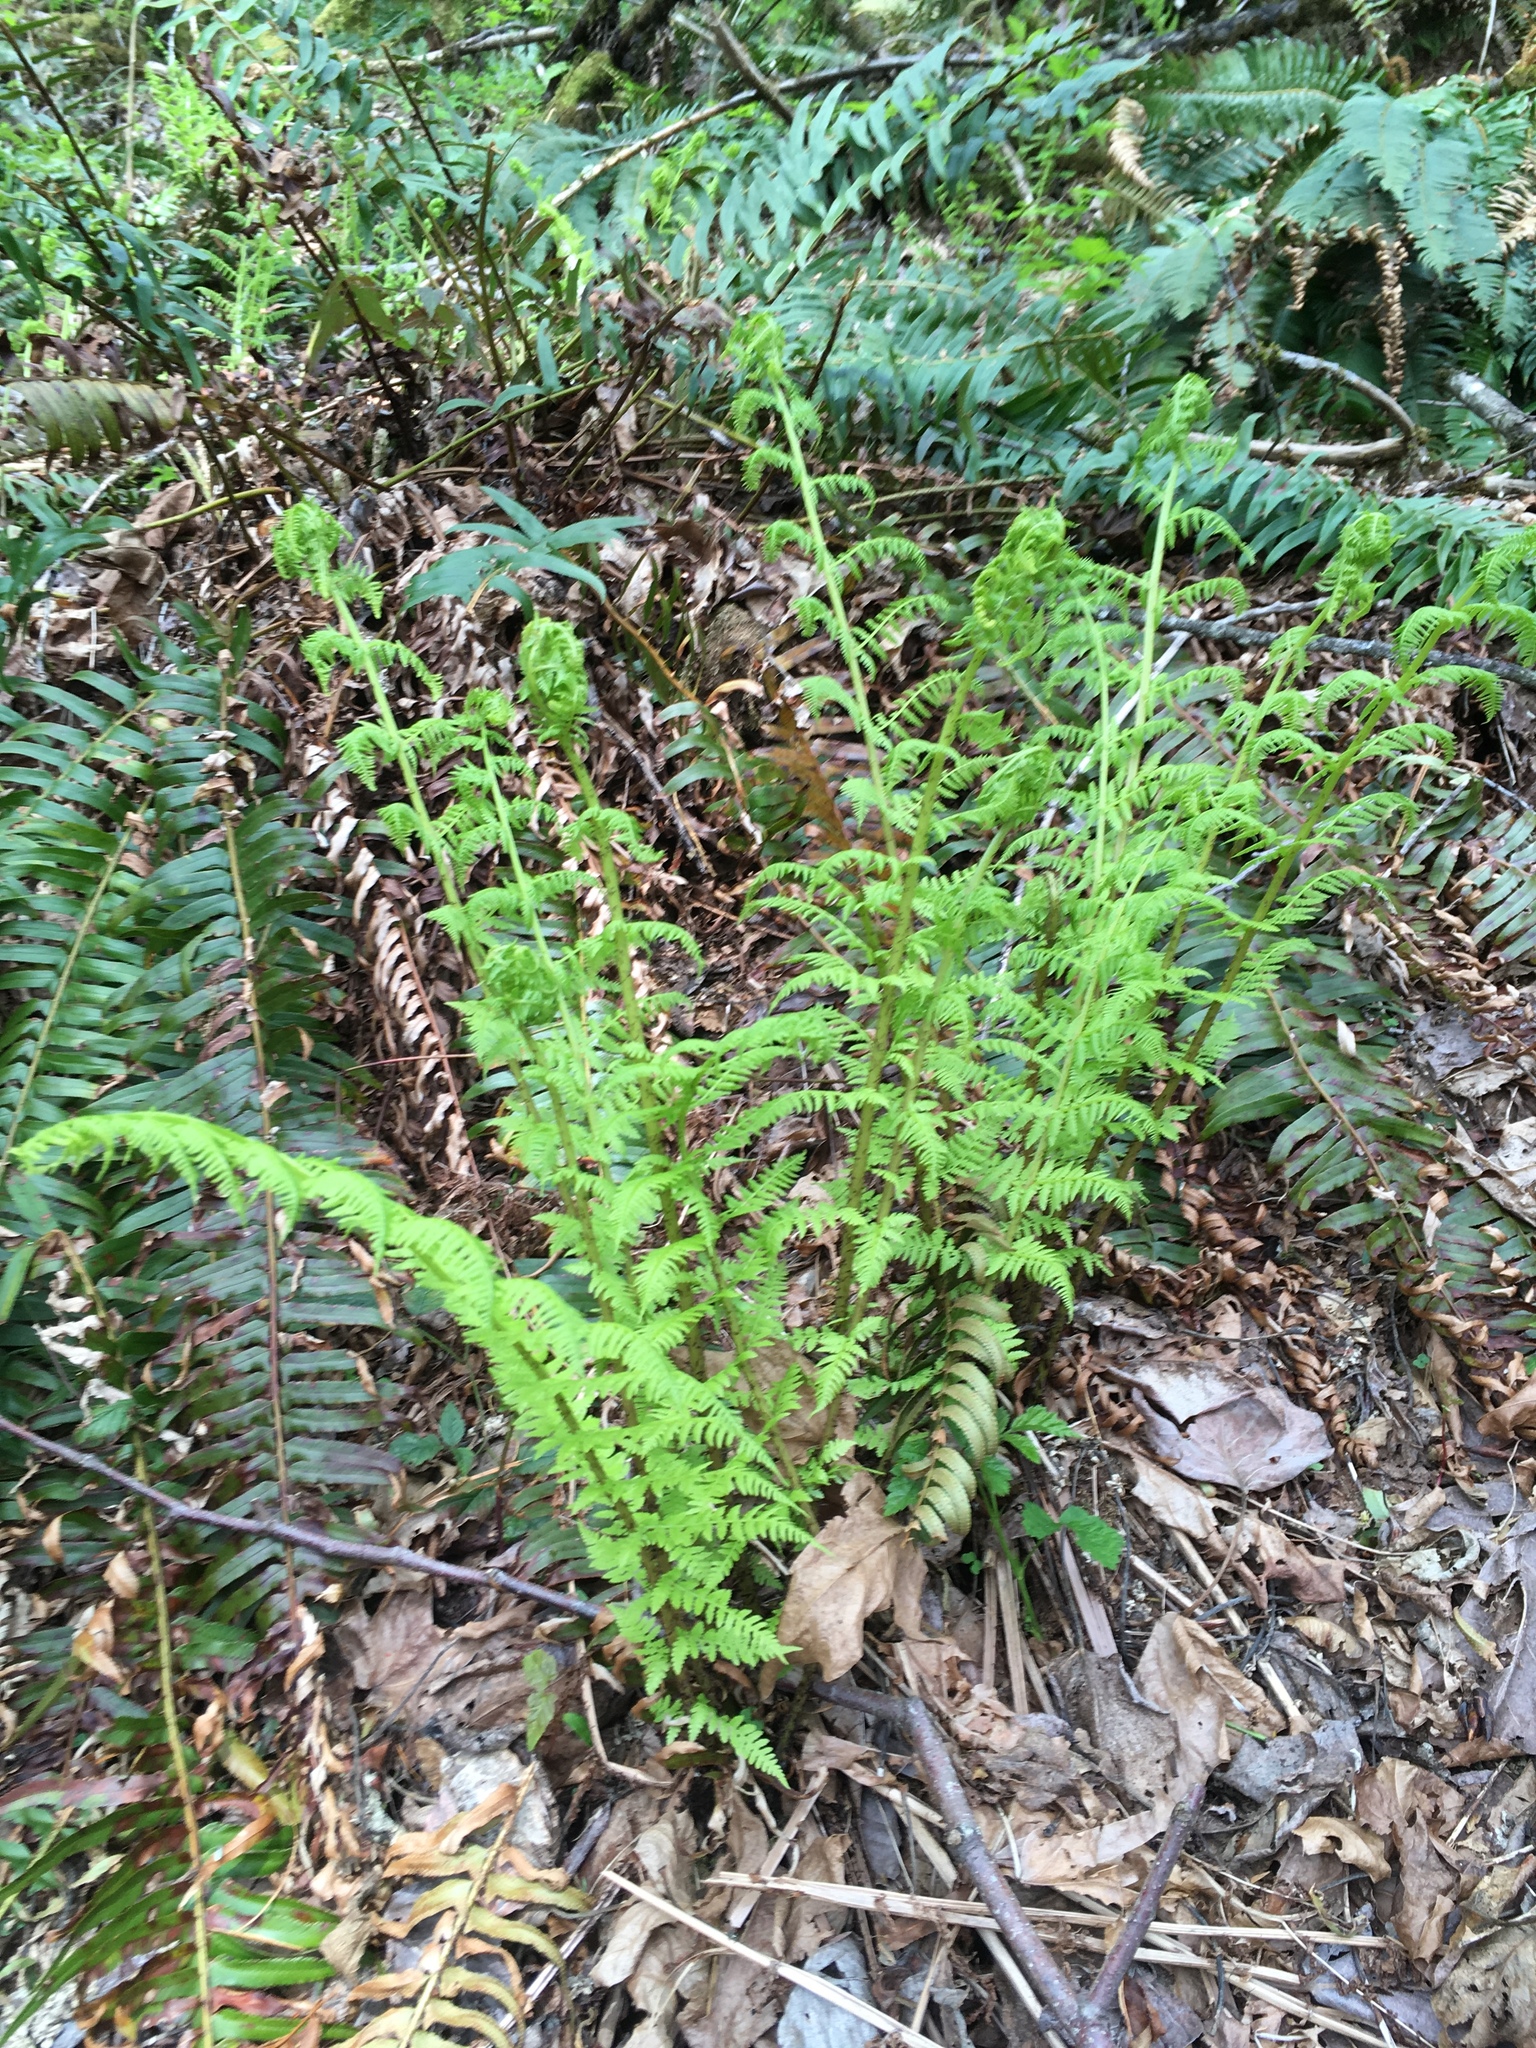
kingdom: Plantae
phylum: Tracheophyta
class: Polypodiopsida
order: Polypodiales
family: Athyriaceae
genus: Athyrium
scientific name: Athyrium filix-femina
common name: Lady fern
